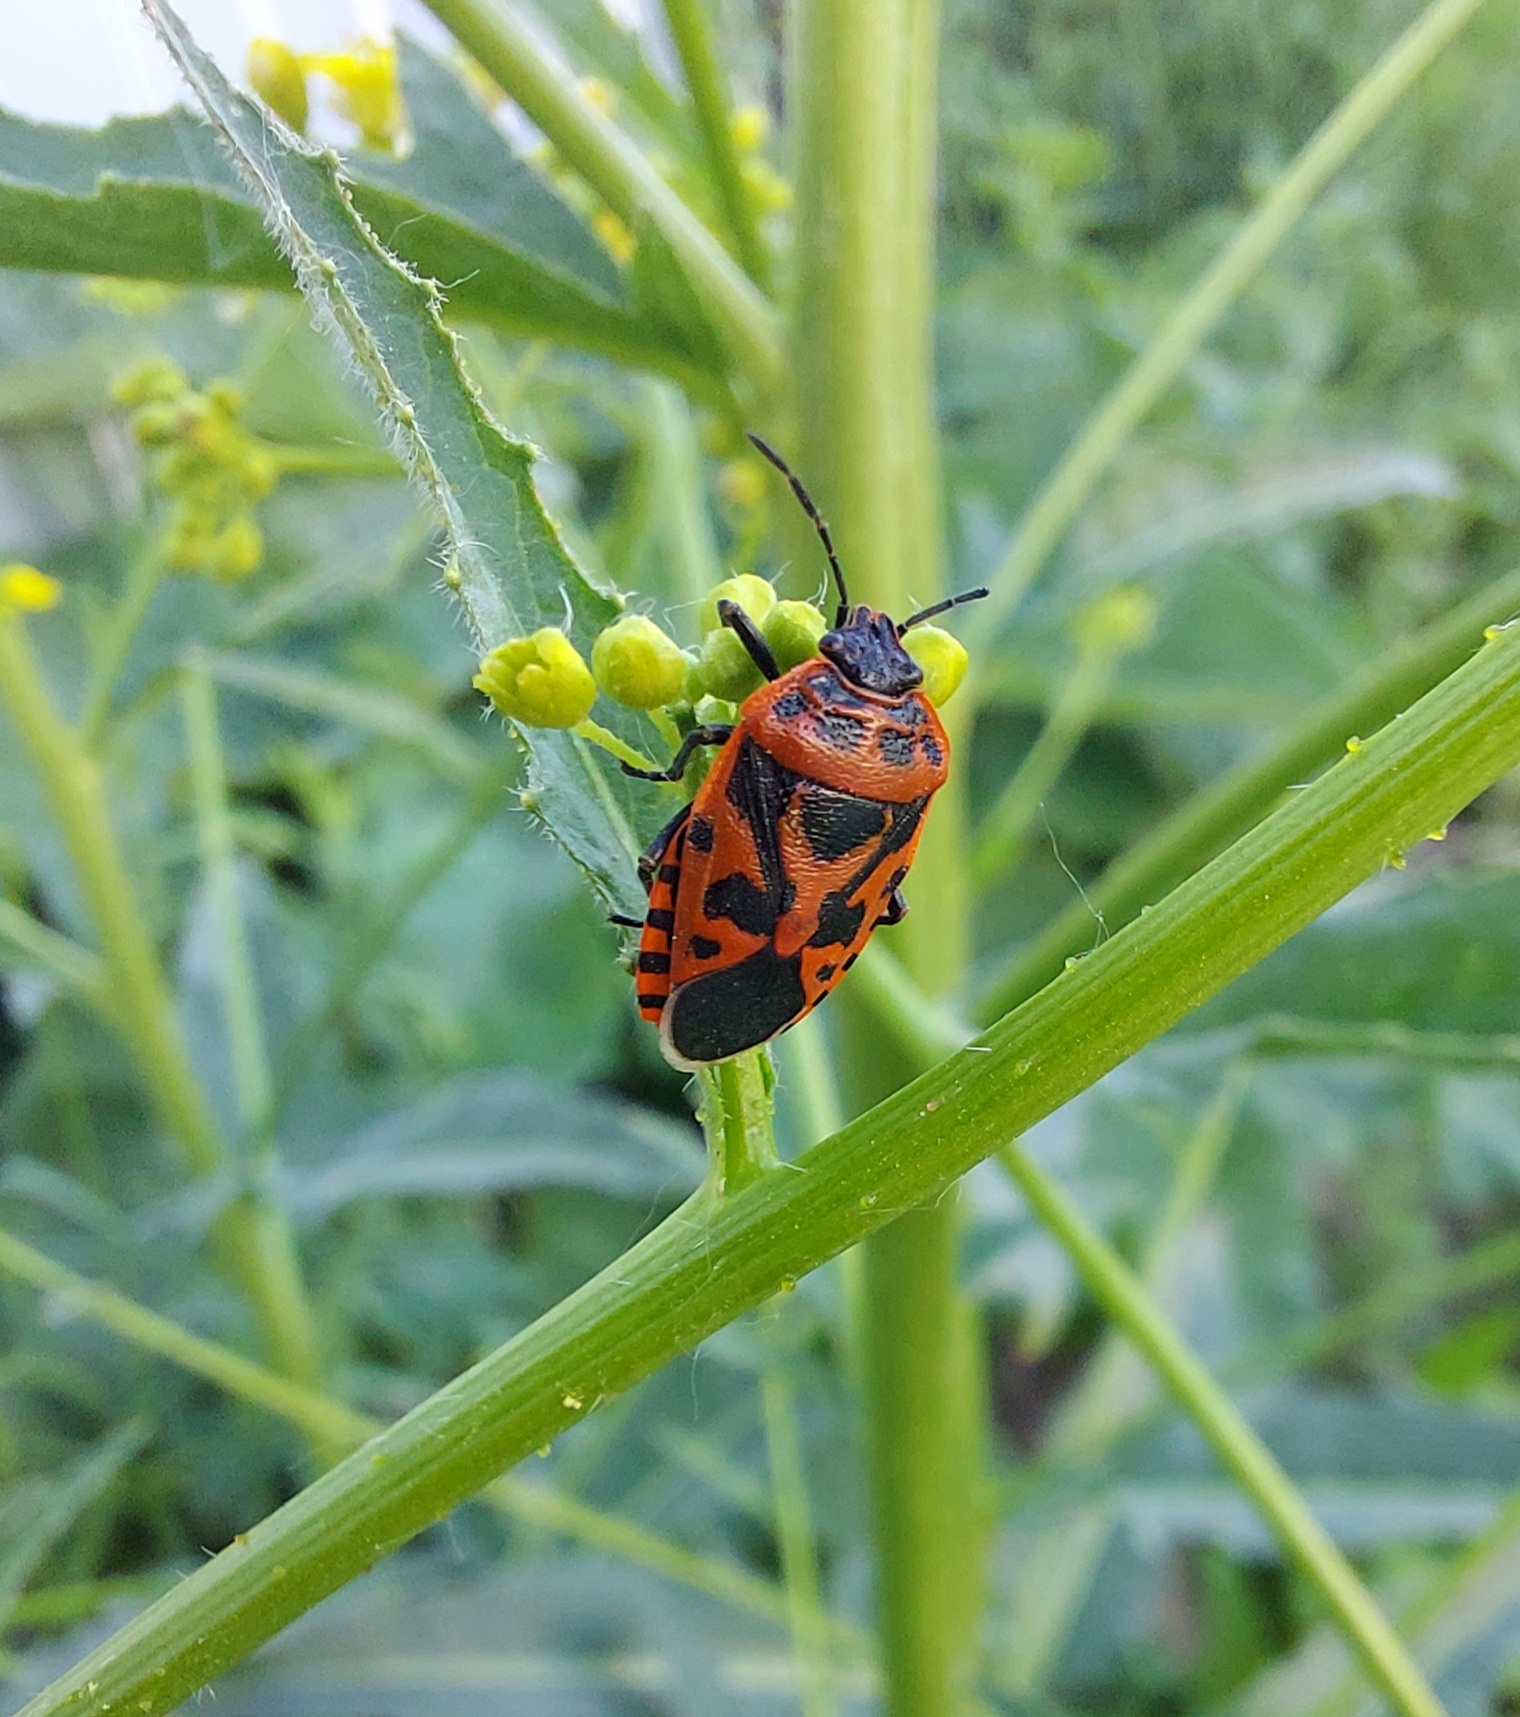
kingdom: Animalia
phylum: Arthropoda
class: Insecta
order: Hemiptera
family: Pentatomidae
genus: Eurydema
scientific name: Eurydema ventralis
